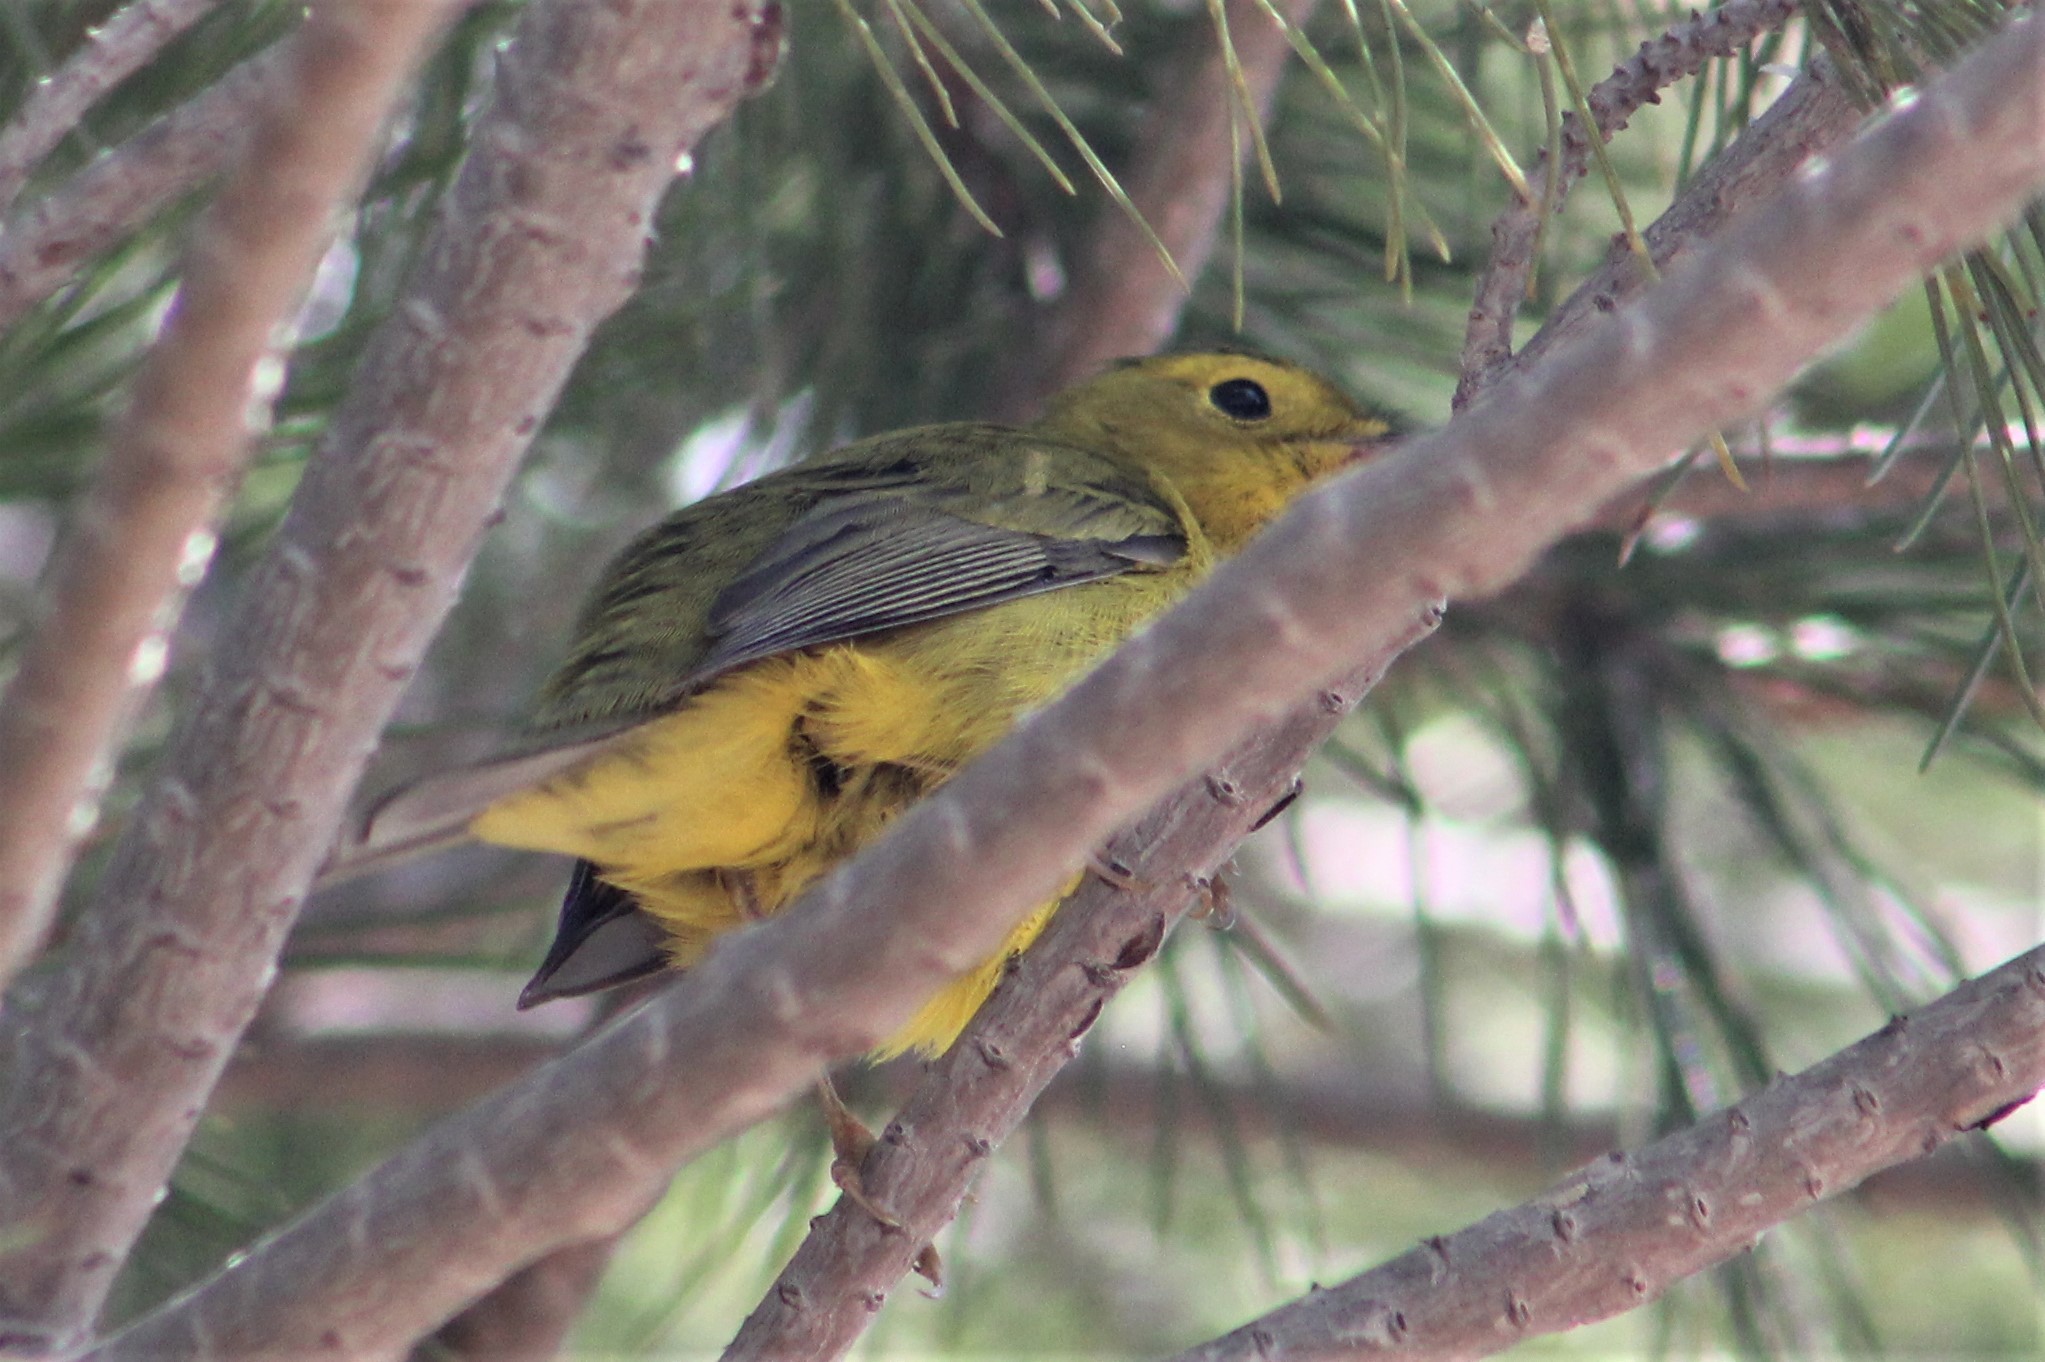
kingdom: Animalia
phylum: Chordata
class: Aves
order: Passeriformes
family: Parulidae
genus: Cardellina
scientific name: Cardellina pusilla
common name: Wilson's warbler
